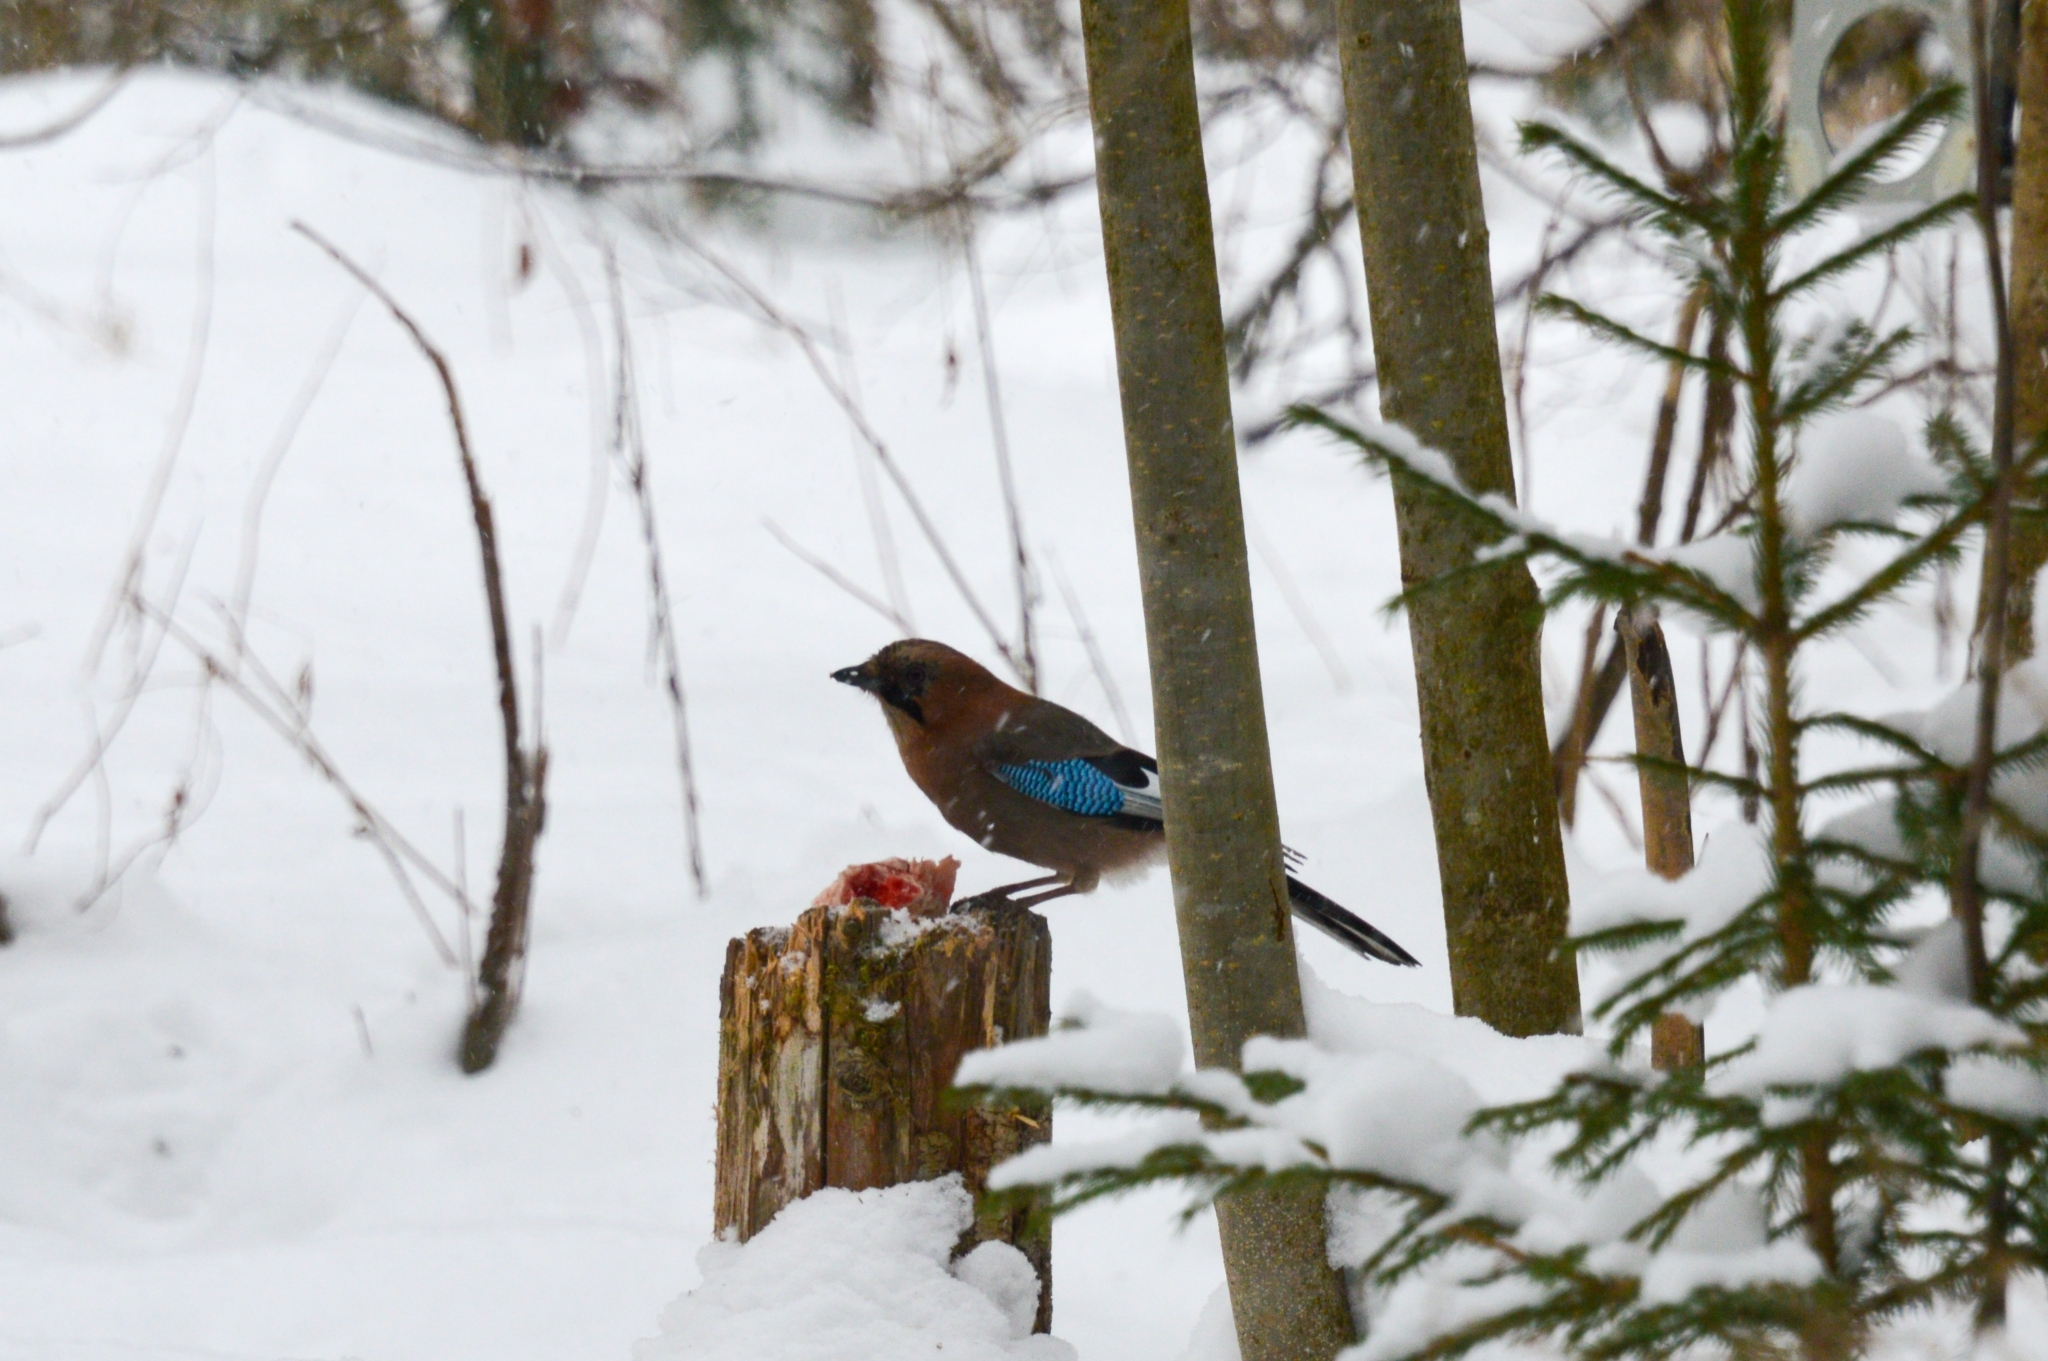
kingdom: Animalia
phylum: Chordata
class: Aves
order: Passeriformes
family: Corvidae
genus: Garrulus
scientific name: Garrulus glandarius
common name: Eurasian jay
